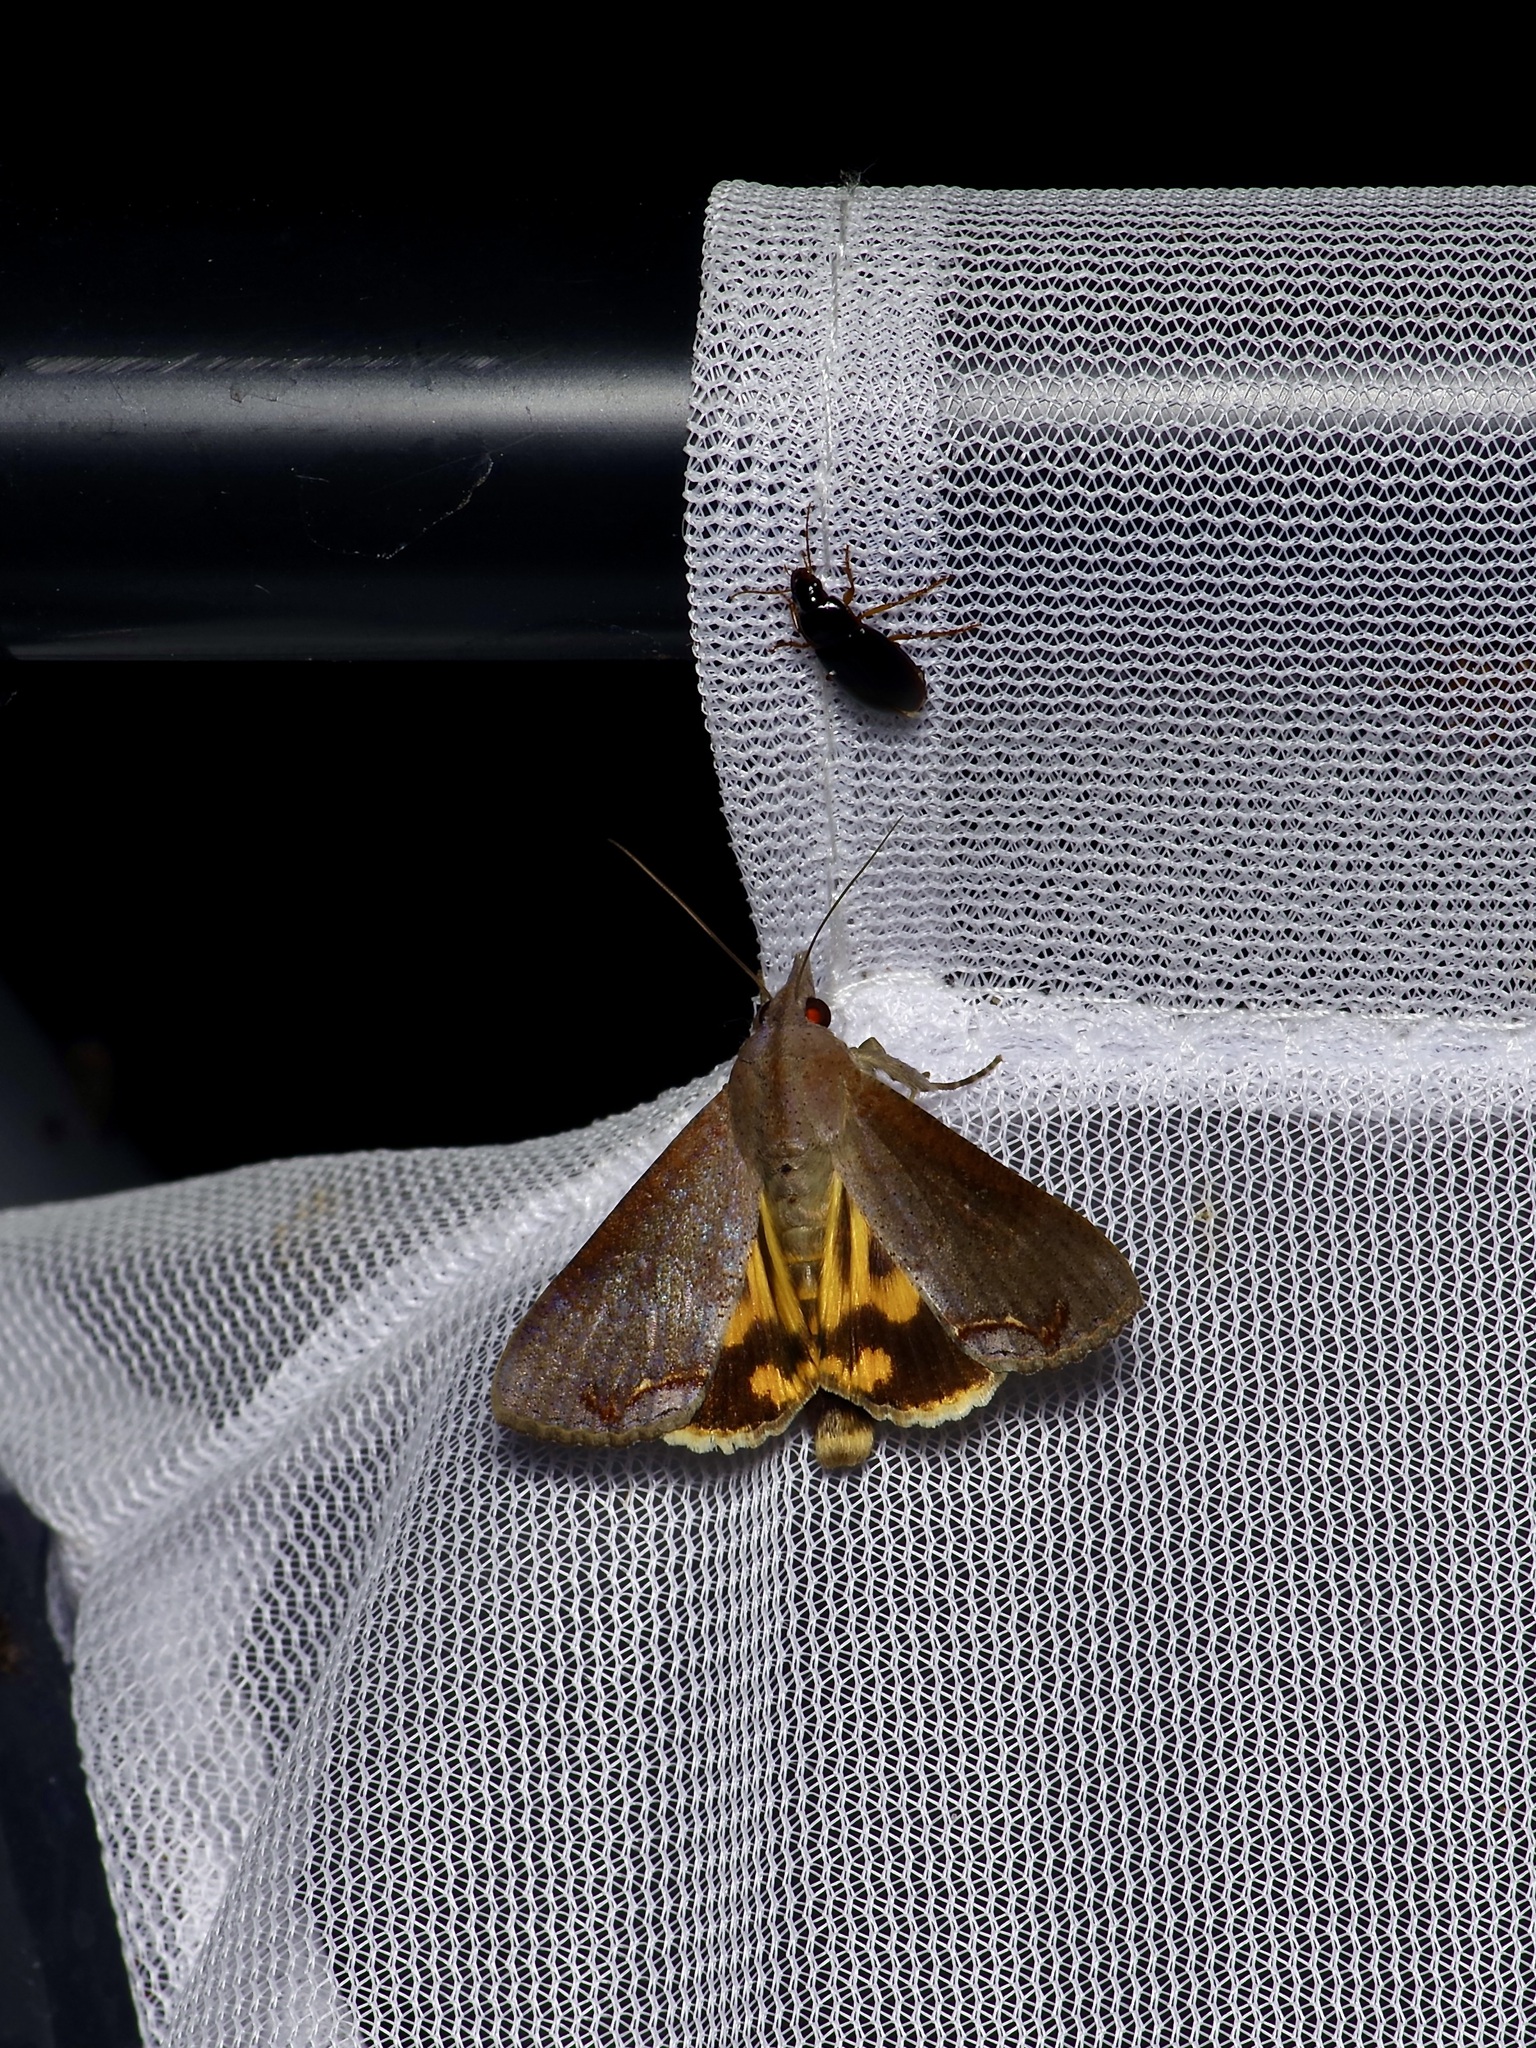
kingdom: Animalia
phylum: Arthropoda
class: Insecta
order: Lepidoptera
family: Erebidae
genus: Hypocala
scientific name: Hypocala andremona
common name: Hypocala moth
